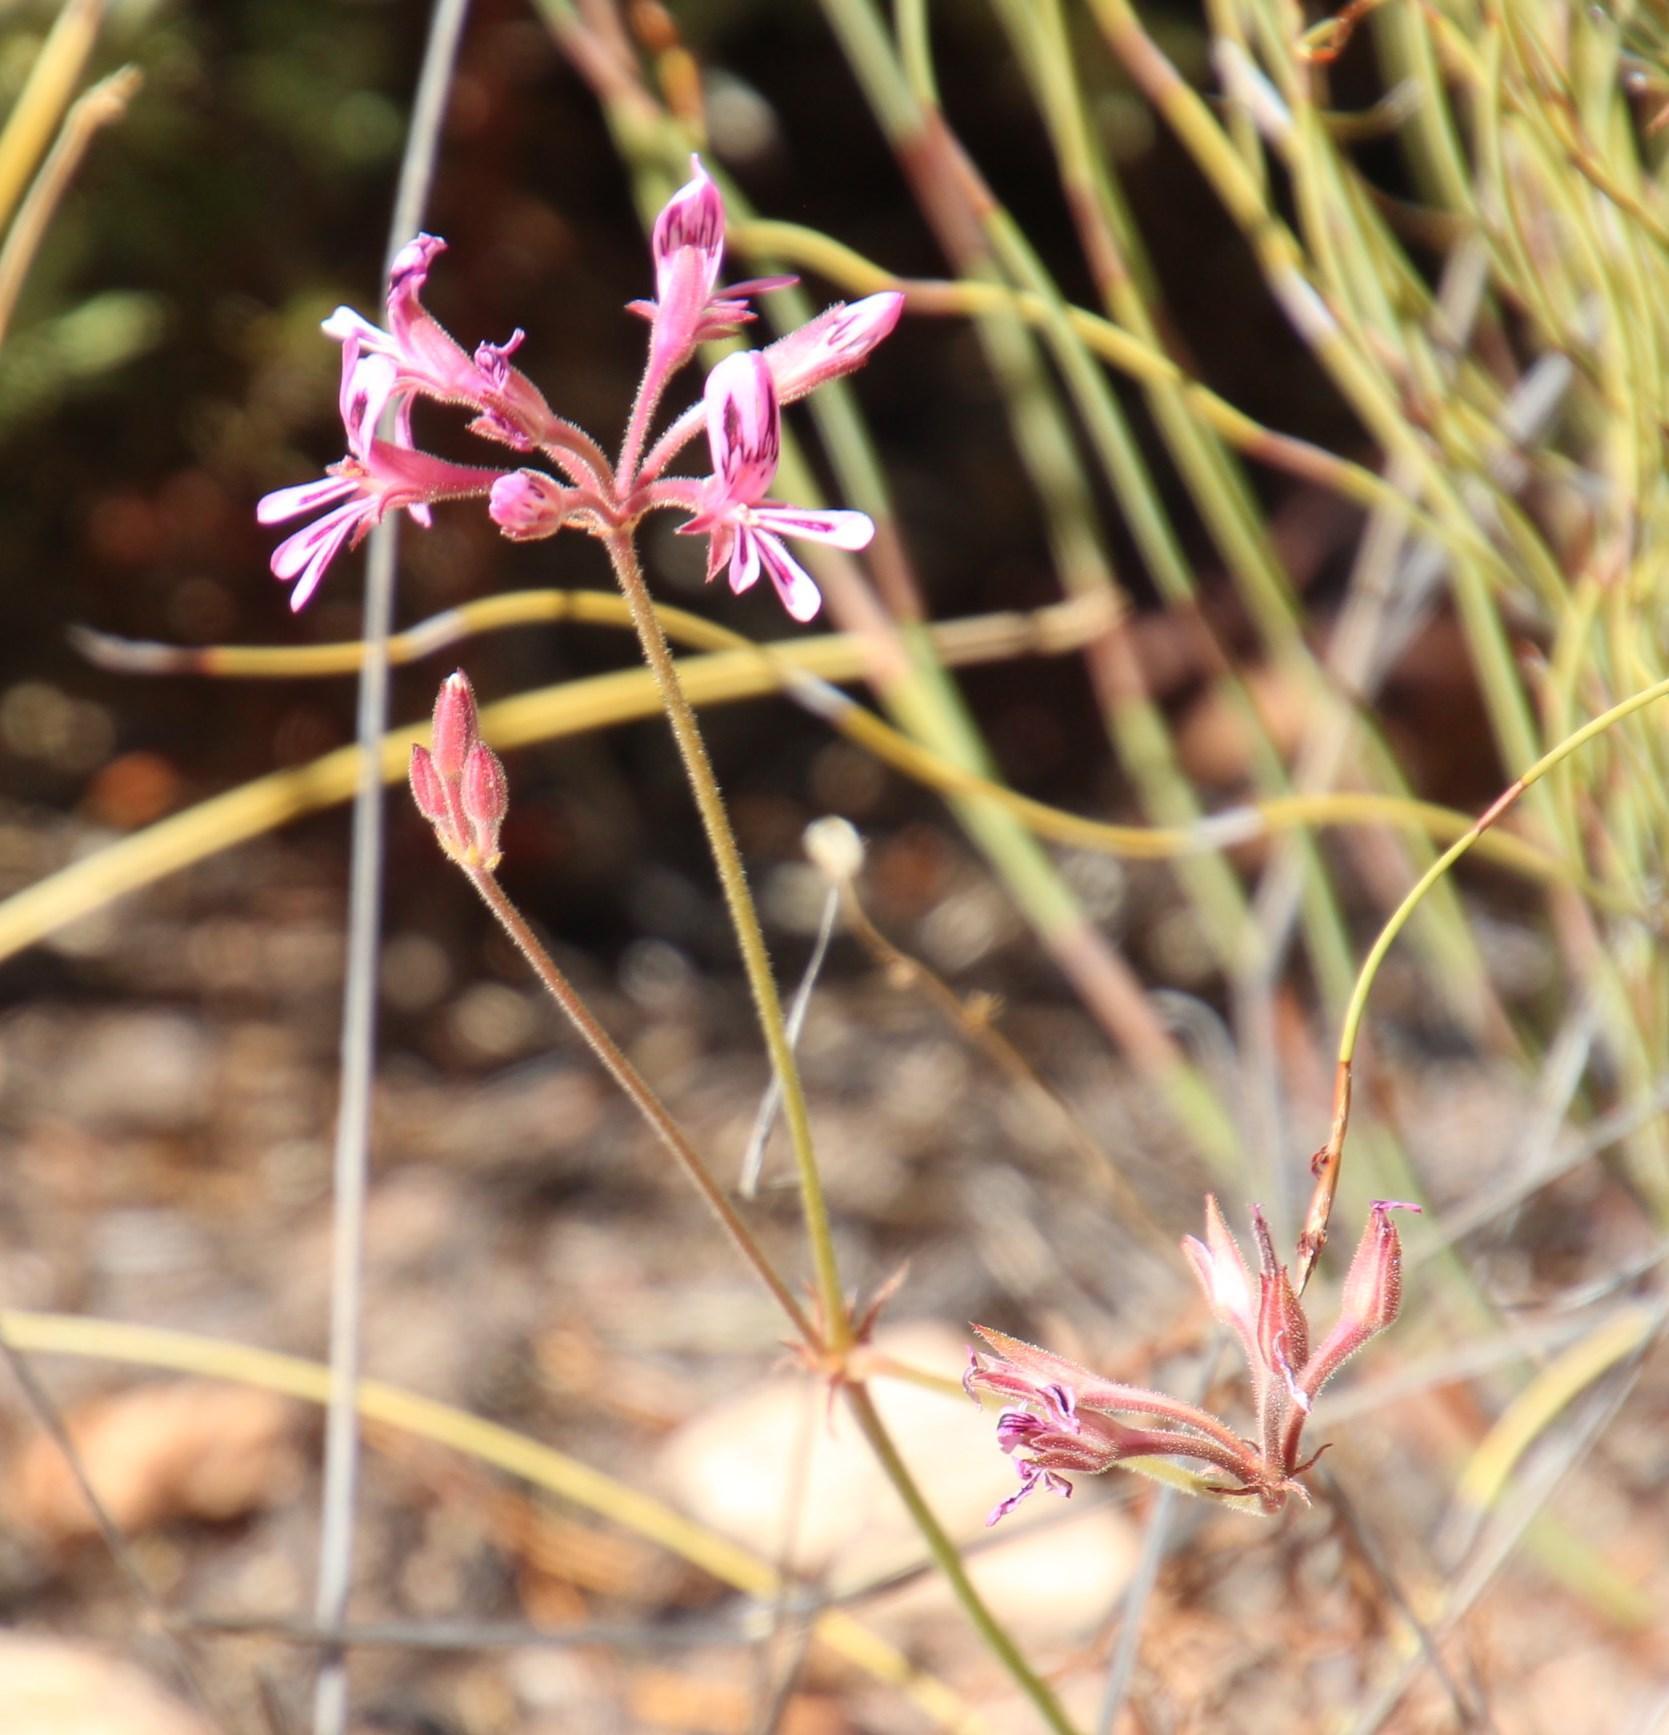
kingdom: Plantae
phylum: Tracheophyta
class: Magnoliopsida
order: Geraniales
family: Geraniaceae
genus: Pelargonium
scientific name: Pelargonium proliferum
